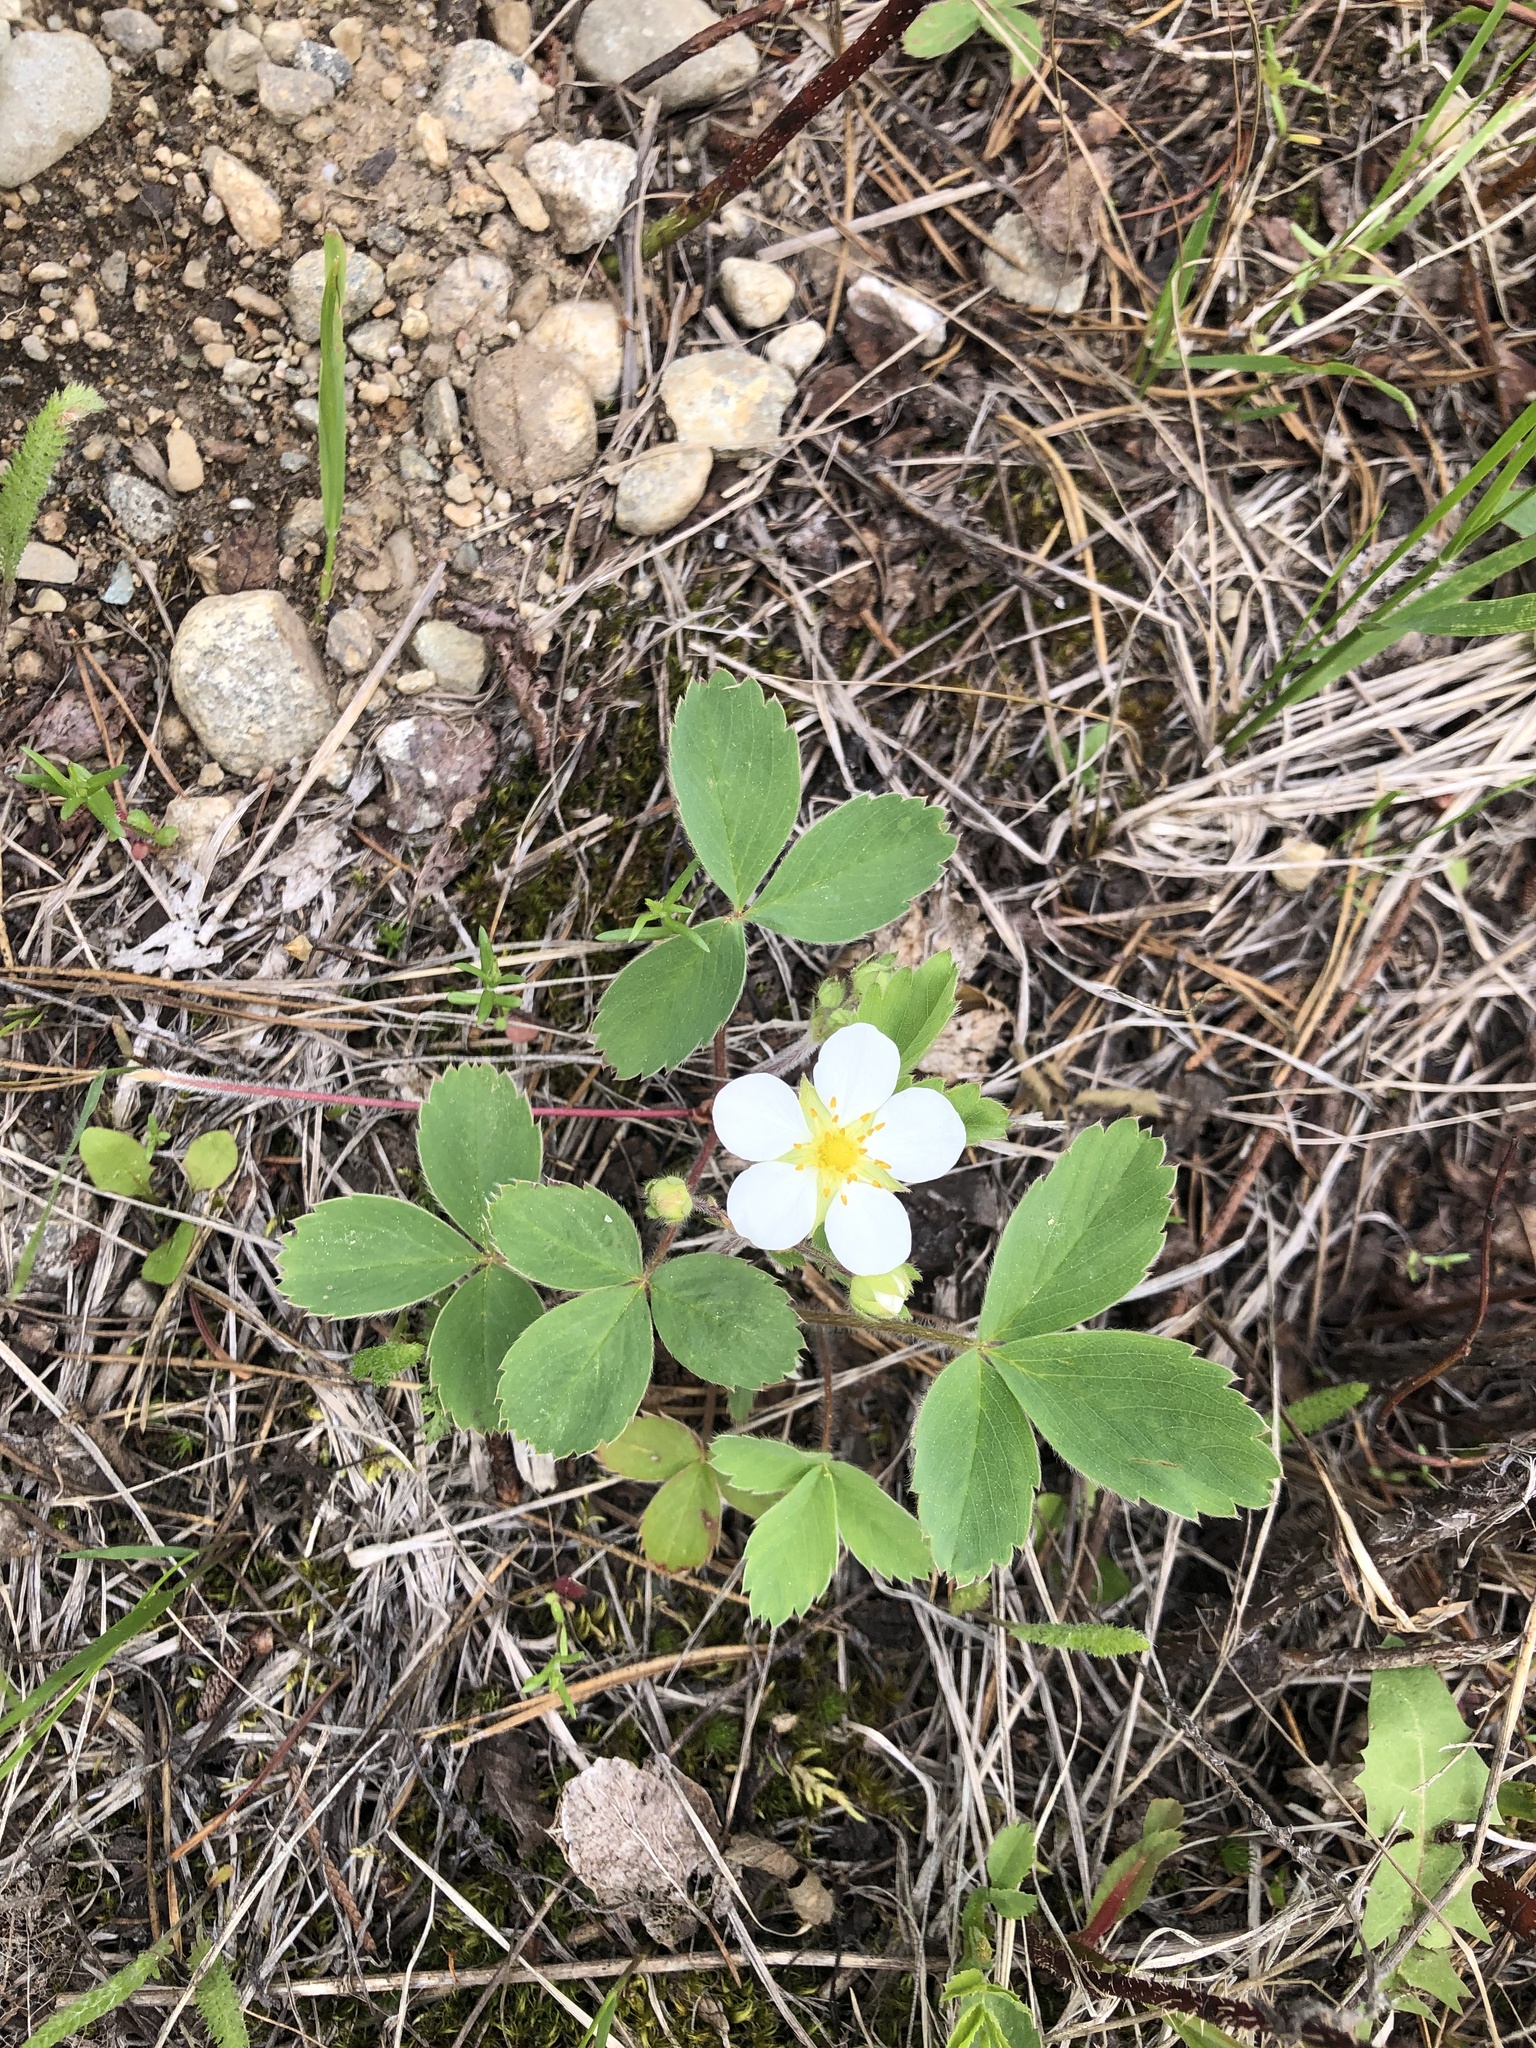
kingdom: Plantae
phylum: Tracheophyta
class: Magnoliopsida
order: Rosales
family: Rosaceae
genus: Fragaria
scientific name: Fragaria virginiana
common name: Thickleaved wild strawberry
